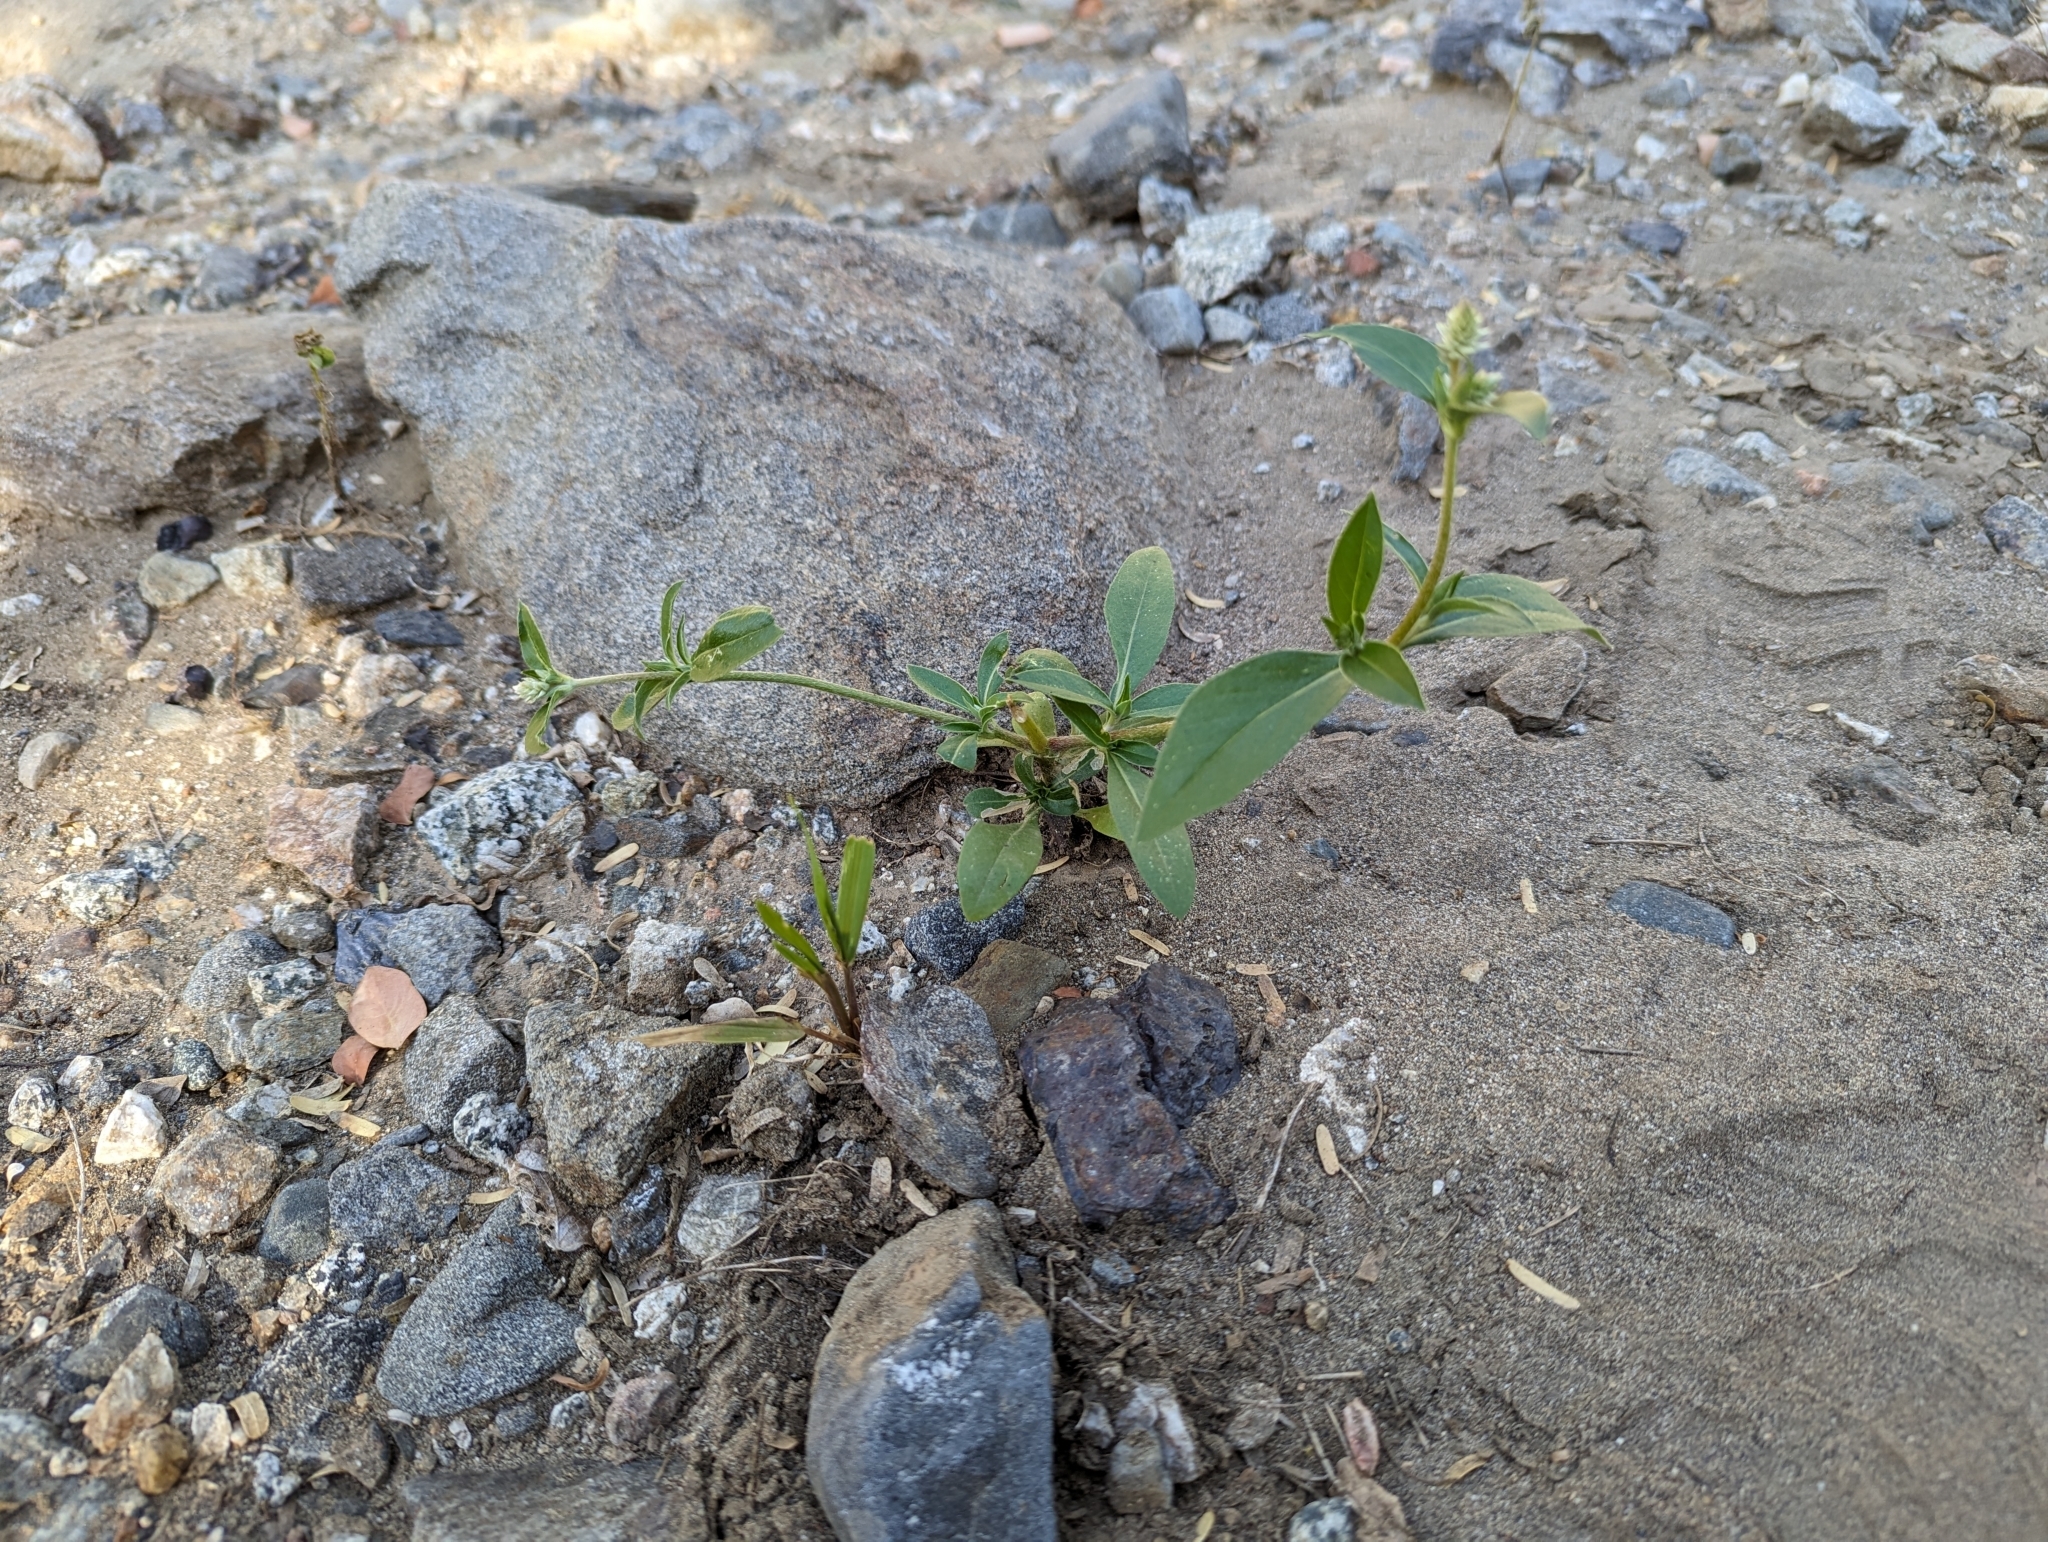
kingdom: Plantae
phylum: Tracheophyta
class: Magnoliopsida
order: Caryophyllales
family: Amaranthaceae
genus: Gomphrena
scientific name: Gomphrena sonorae
